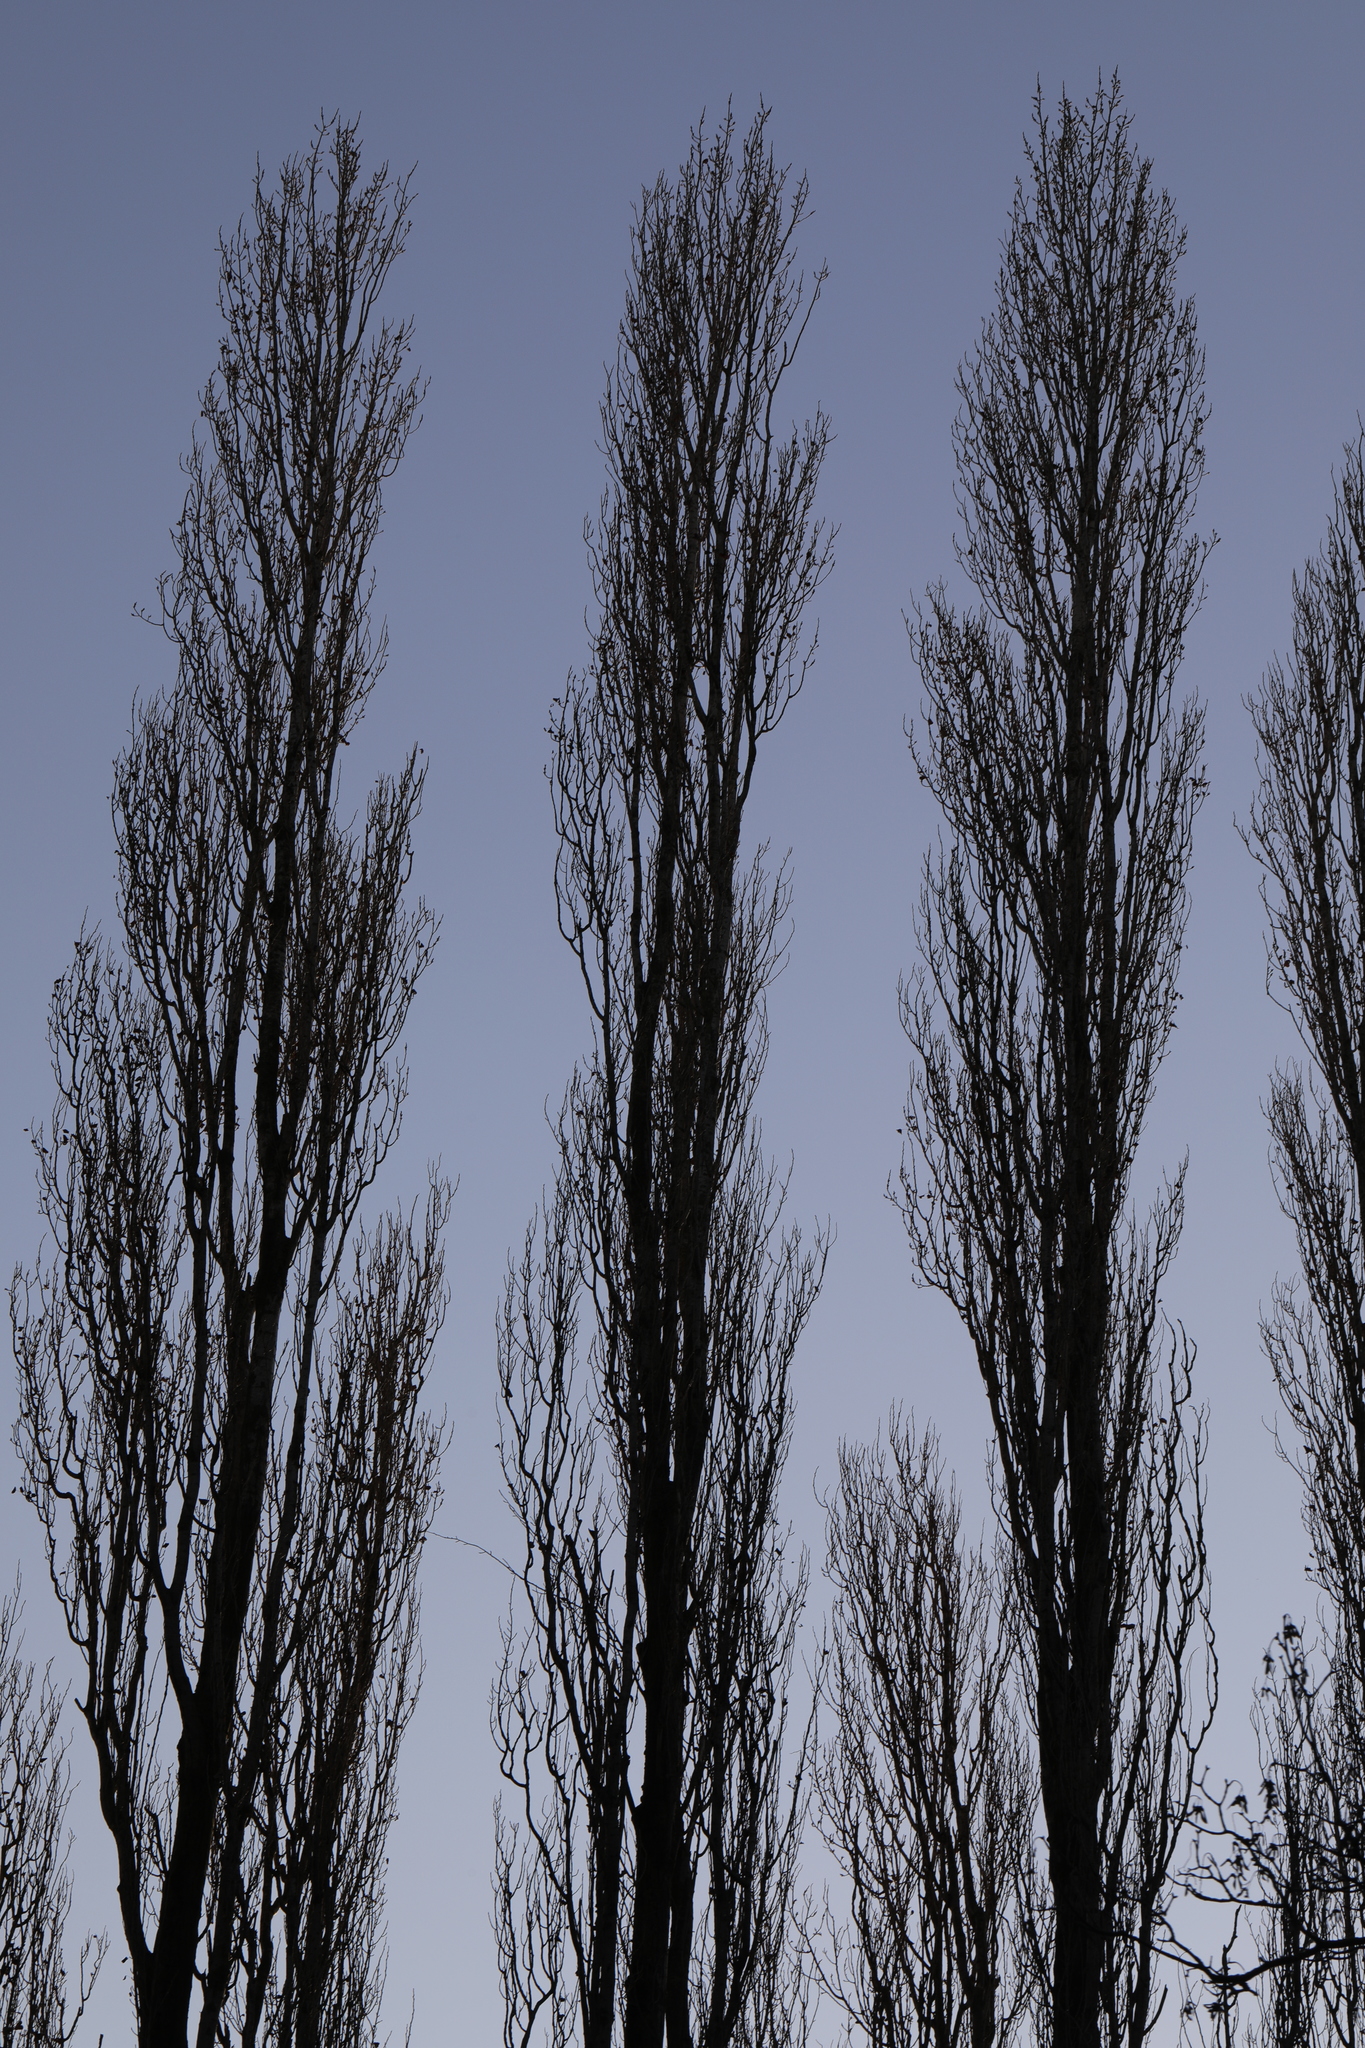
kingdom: Plantae
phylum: Tracheophyta
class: Magnoliopsida
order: Malpighiales
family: Salicaceae
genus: Populus
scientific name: Populus nigra
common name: Black poplar
